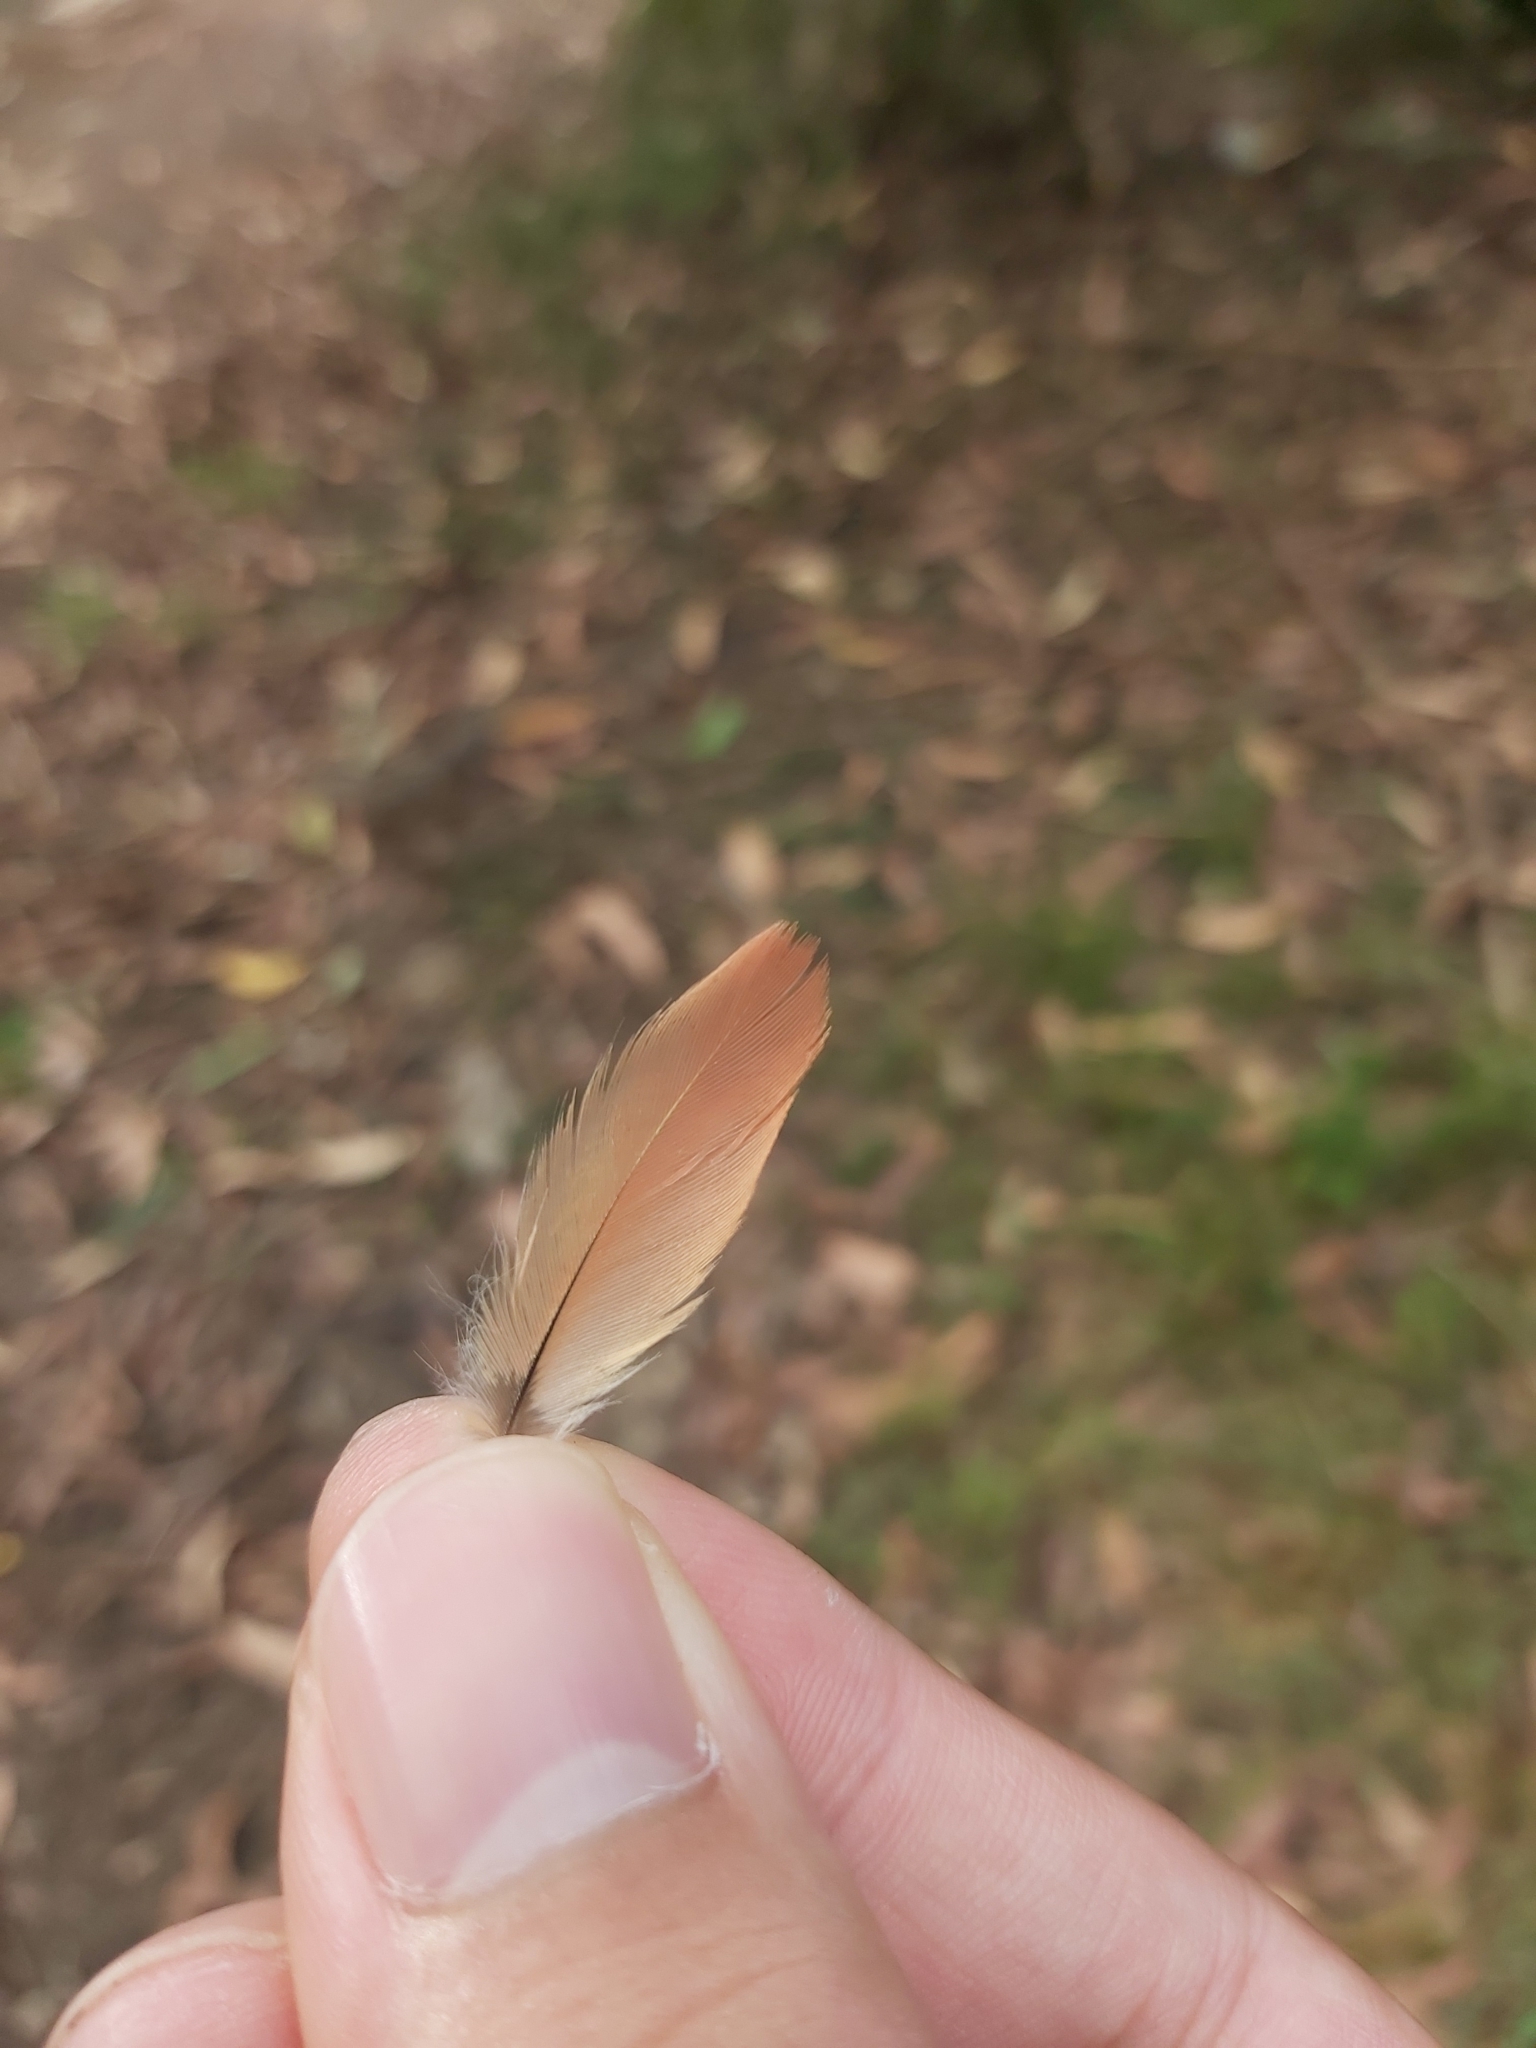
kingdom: Animalia
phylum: Chordata
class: Aves
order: Psittaciformes
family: Psittacidae
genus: Trichoglossus
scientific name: Trichoglossus haematodus
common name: Coconut lorikeet
